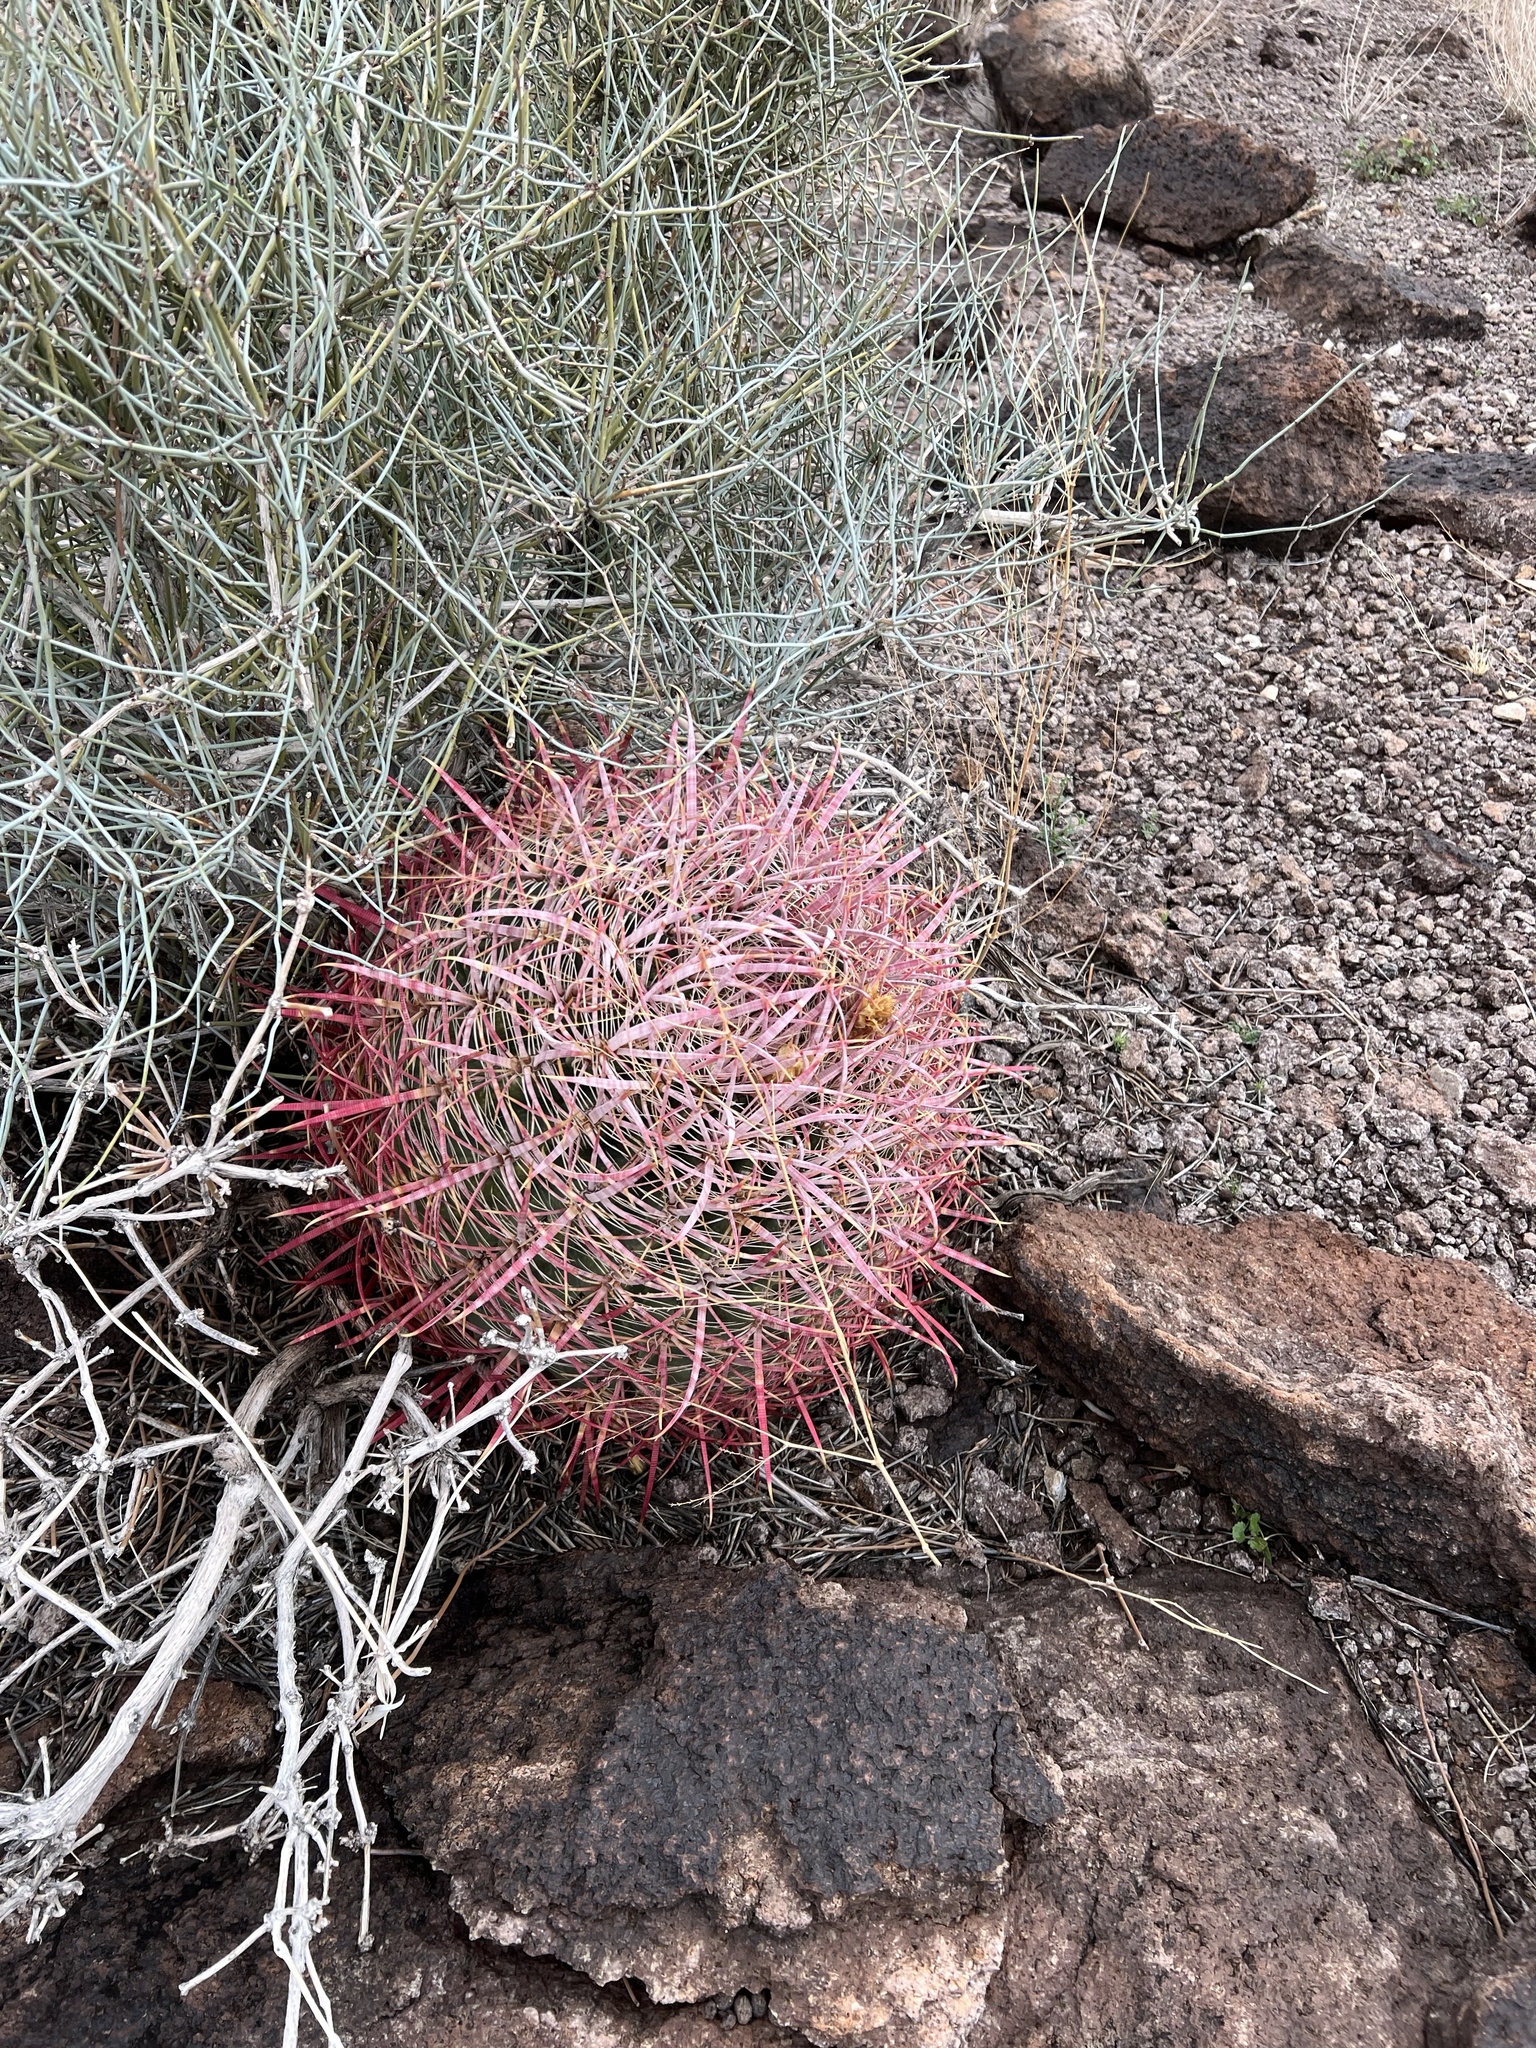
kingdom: Plantae
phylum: Tracheophyta
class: Magnoliopsida
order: Caryophyllales
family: Cactaceae
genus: Ferocactus
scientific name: Ferocactus cylindraceus
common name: California barrel cactus
